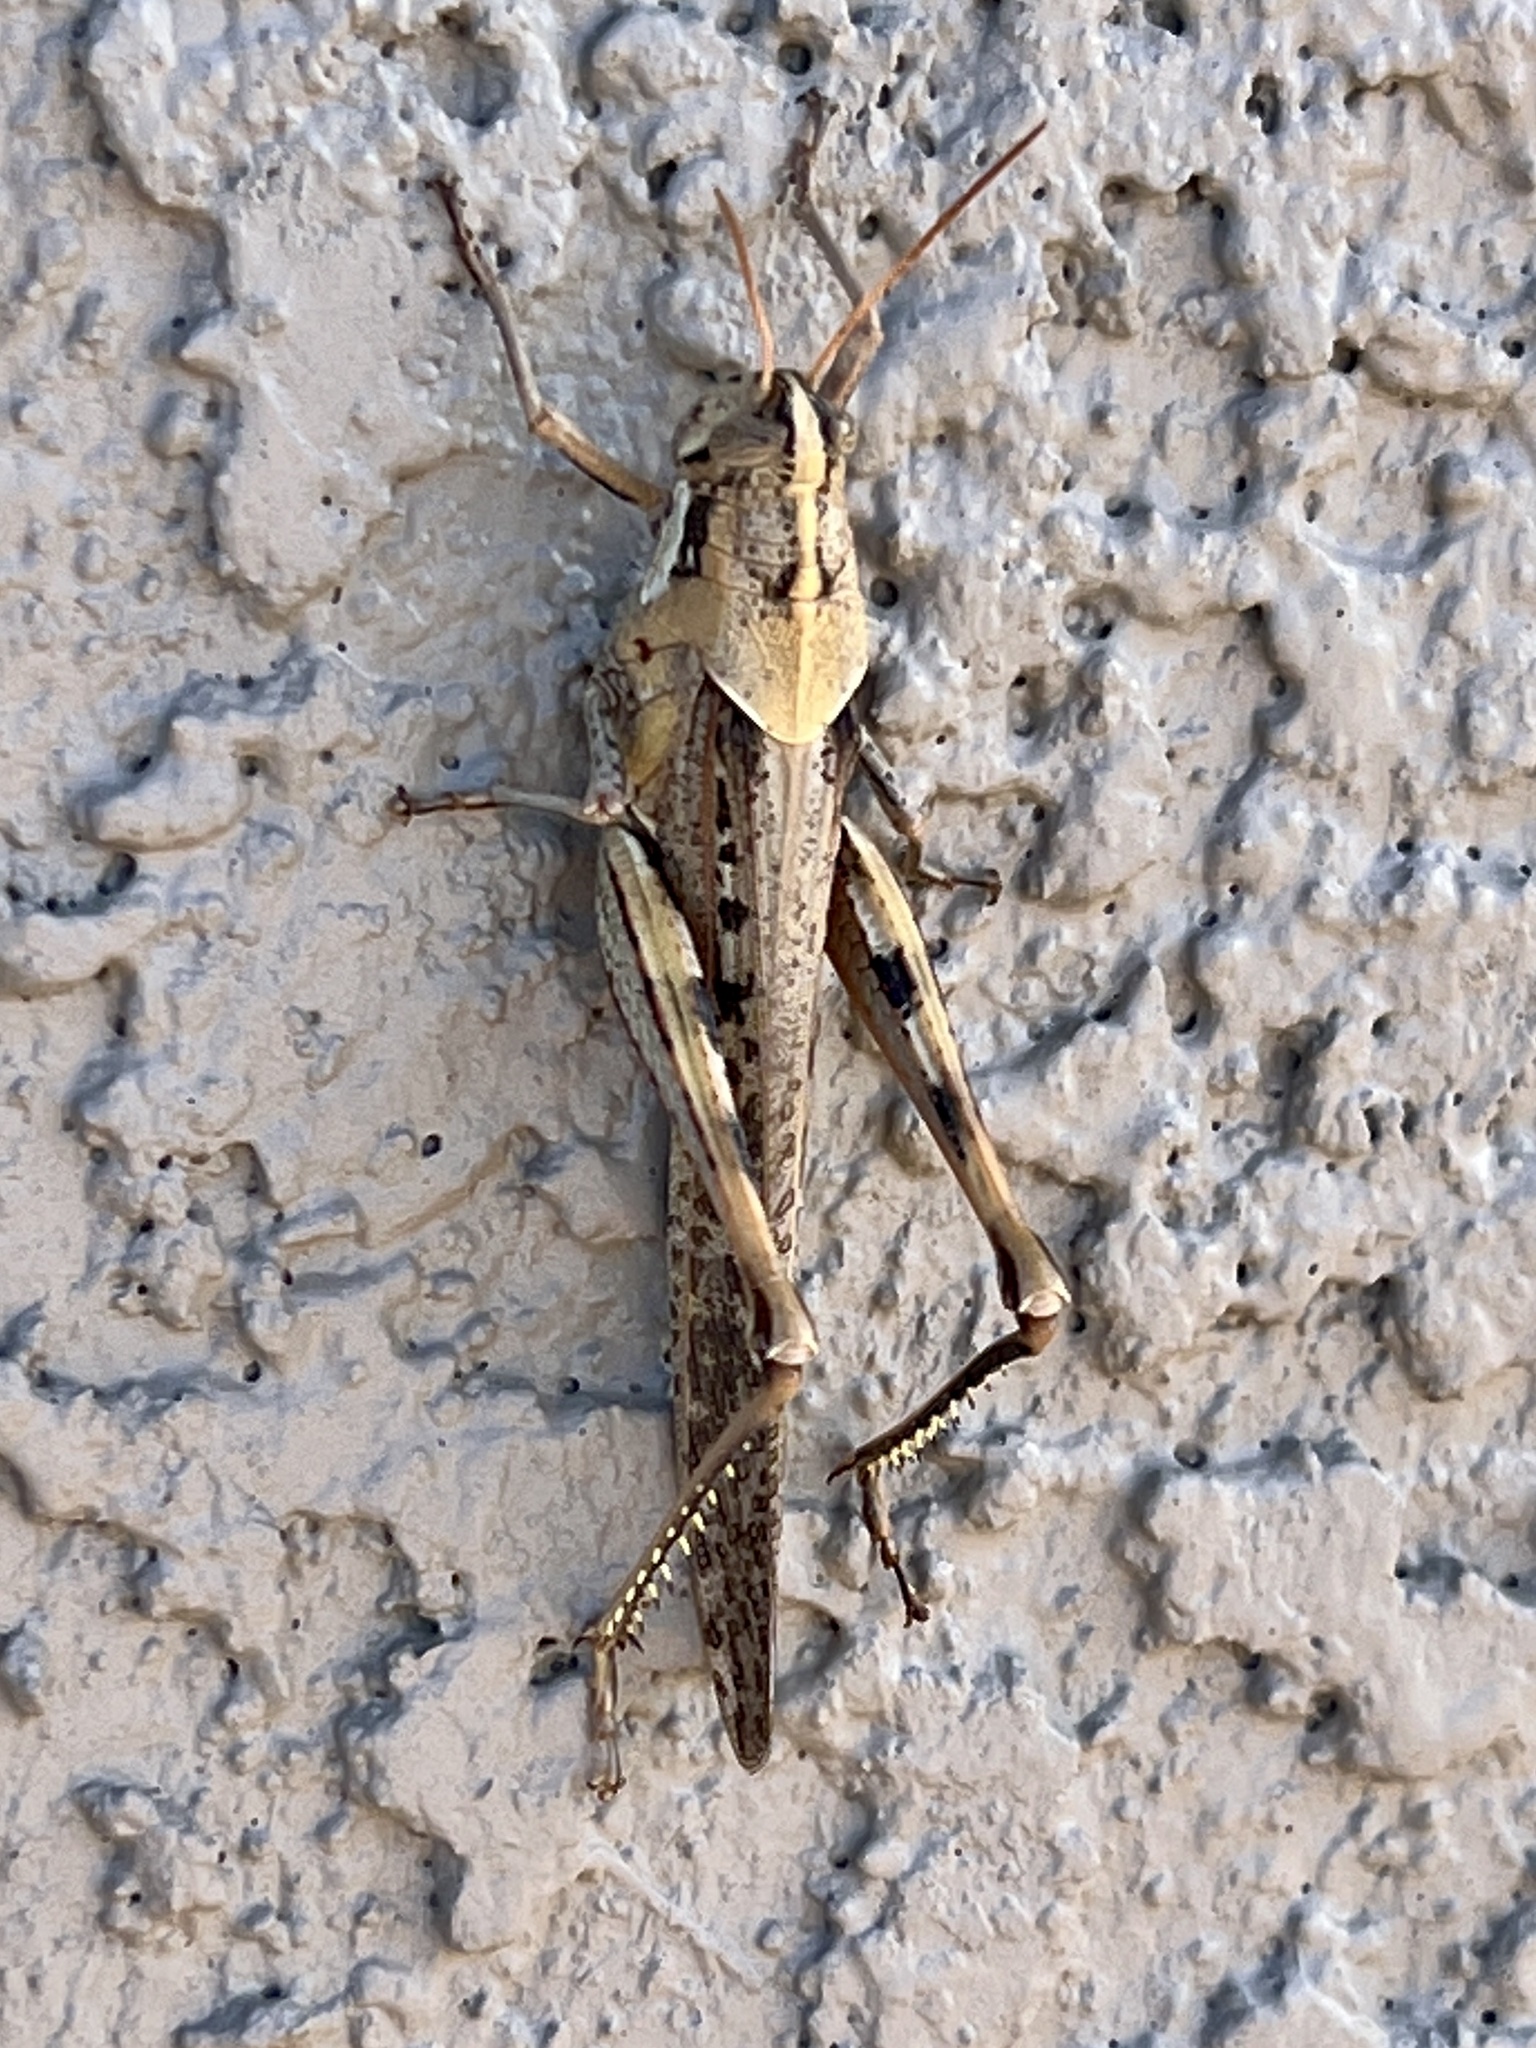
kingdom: Animalia
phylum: Arthropoda
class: Insecta
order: Orthoptera
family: Acrididae
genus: Schistocerca
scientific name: Schistocerca nitens
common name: Vagrant grasshopper
